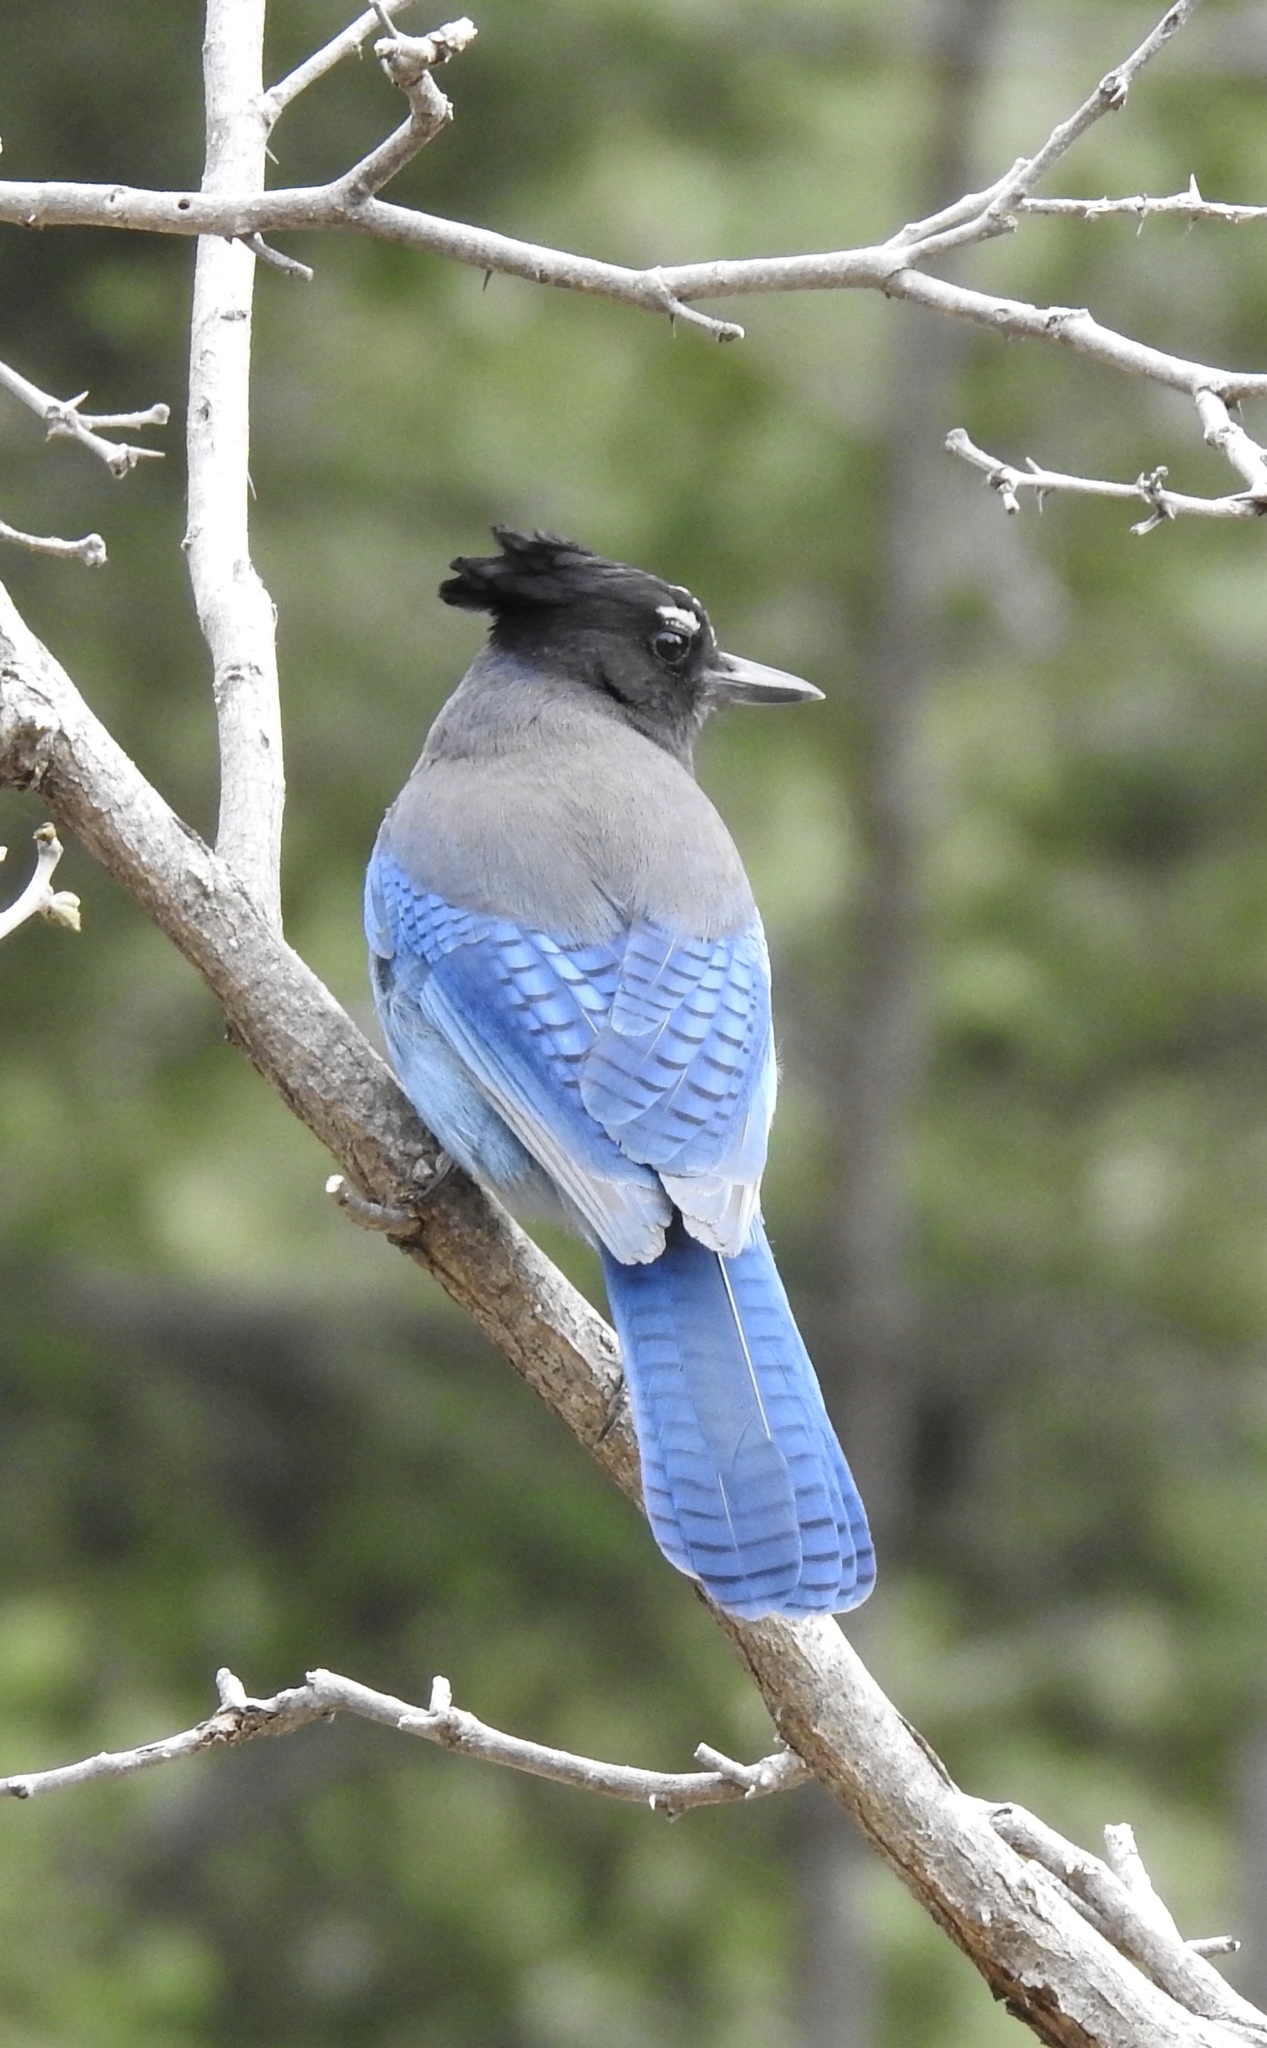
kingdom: Animalia
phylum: Chordata
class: Aves
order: Passeriformes
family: Corvidae
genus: Cyanocitta
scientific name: Cyanocitta stelleri
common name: Steller's jay
